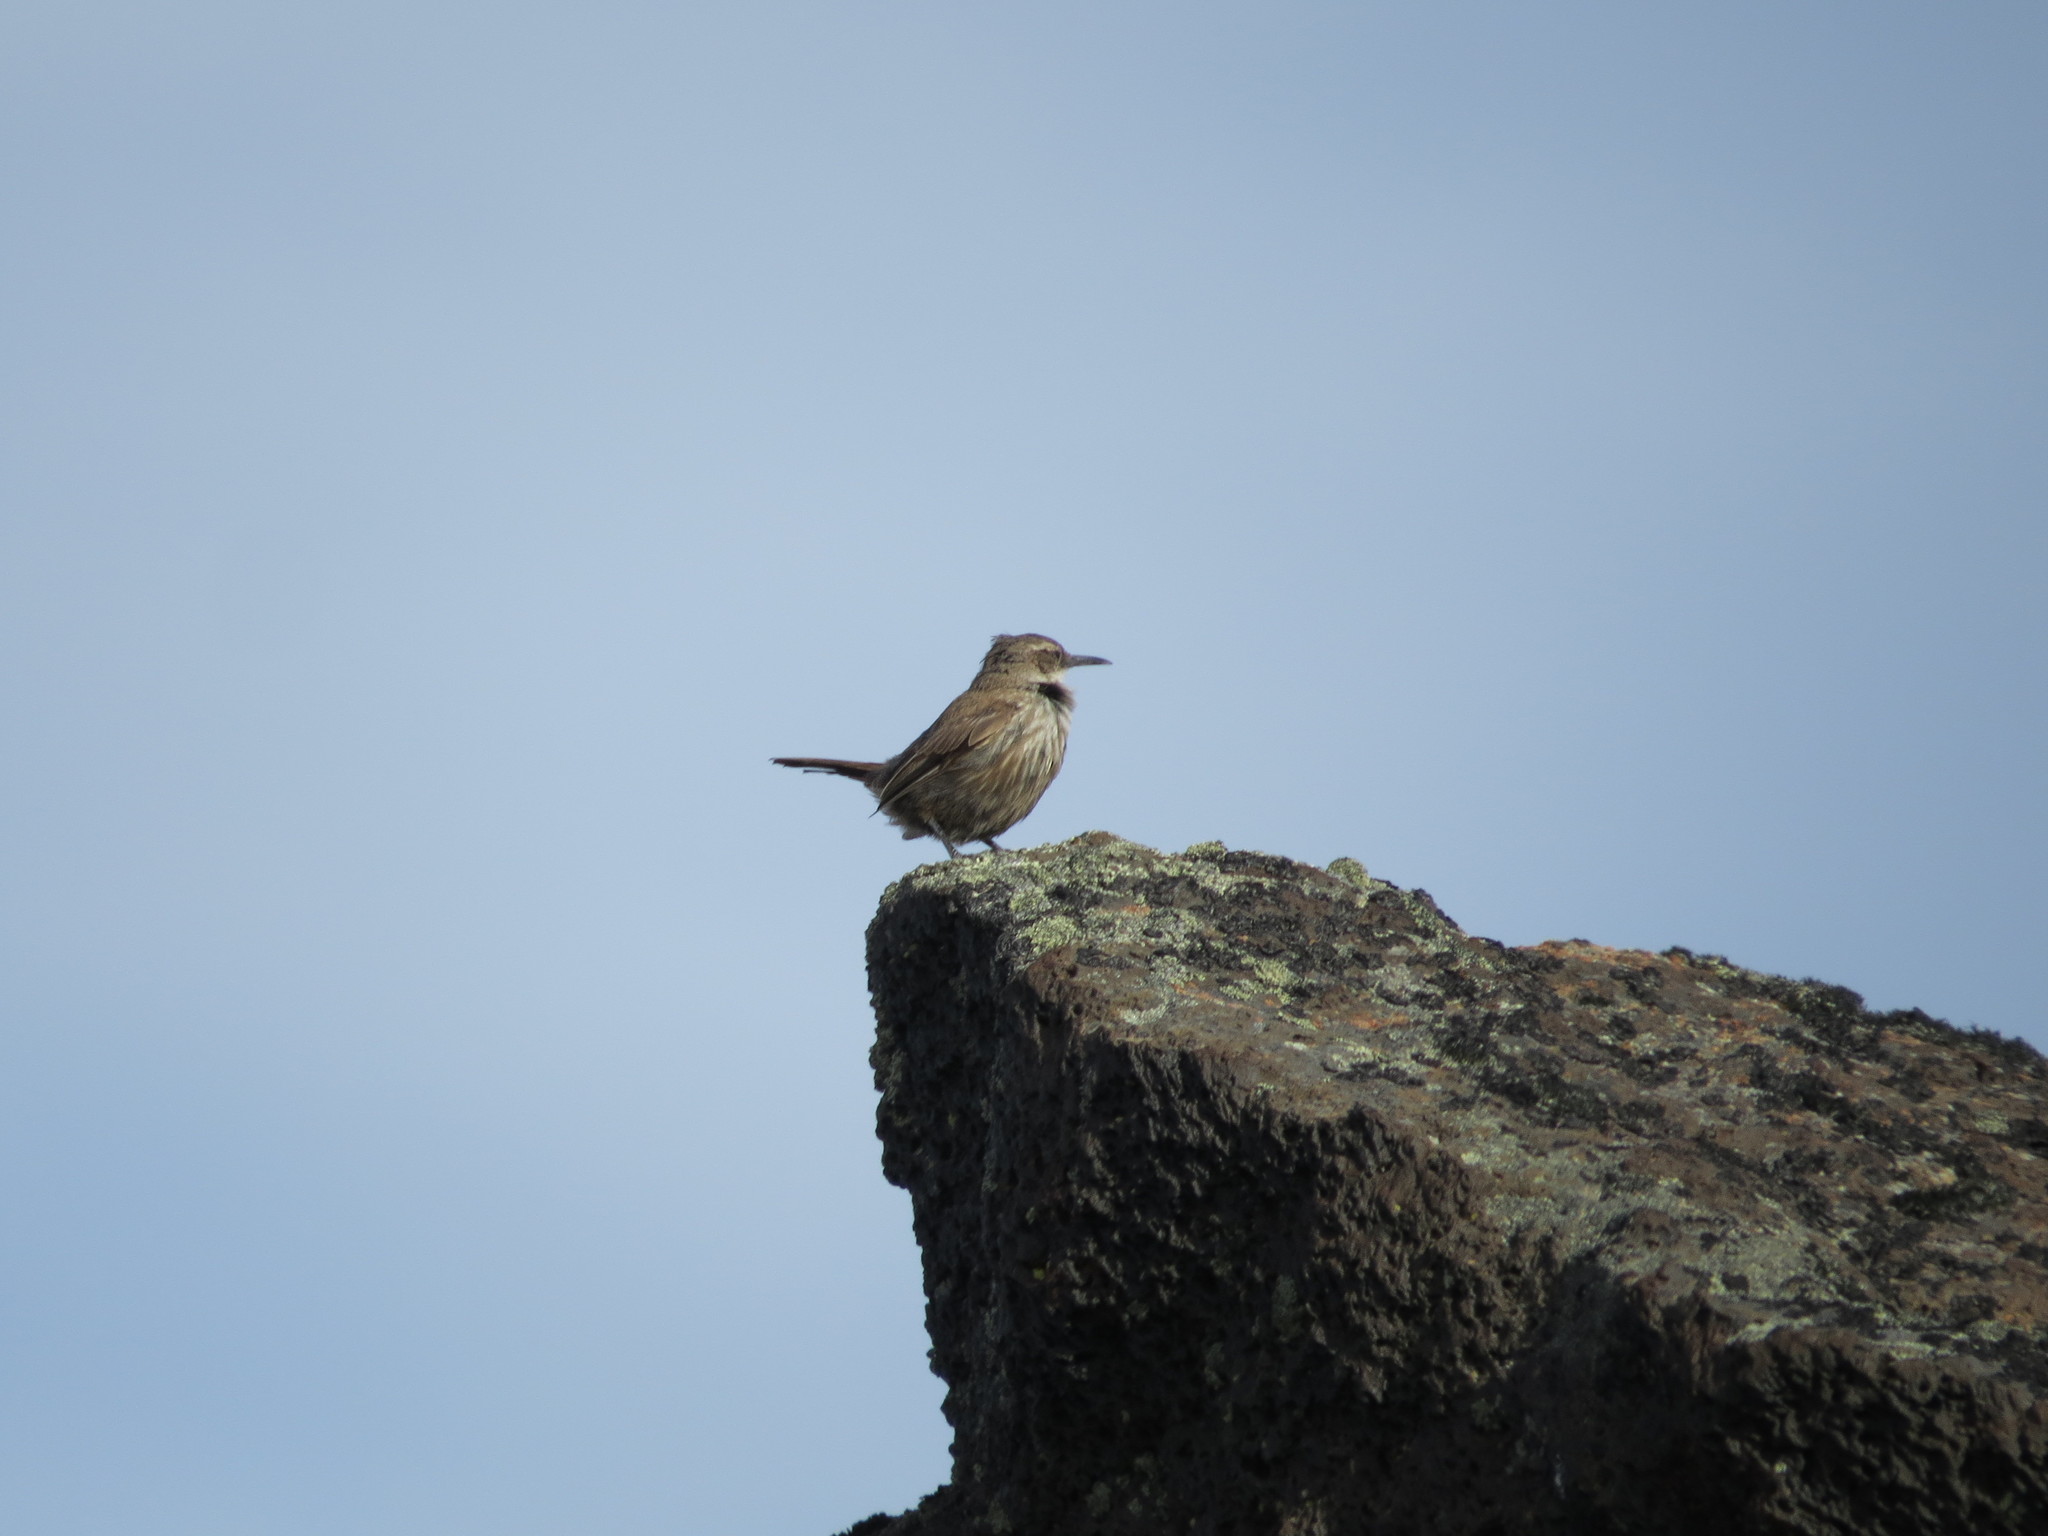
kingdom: Animalia
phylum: Chordata
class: Aves
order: Passeriformes
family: Furnariidae
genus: Upucerthia
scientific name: Upucerthia ruficaudus
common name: Straight-billed earthcreeper
